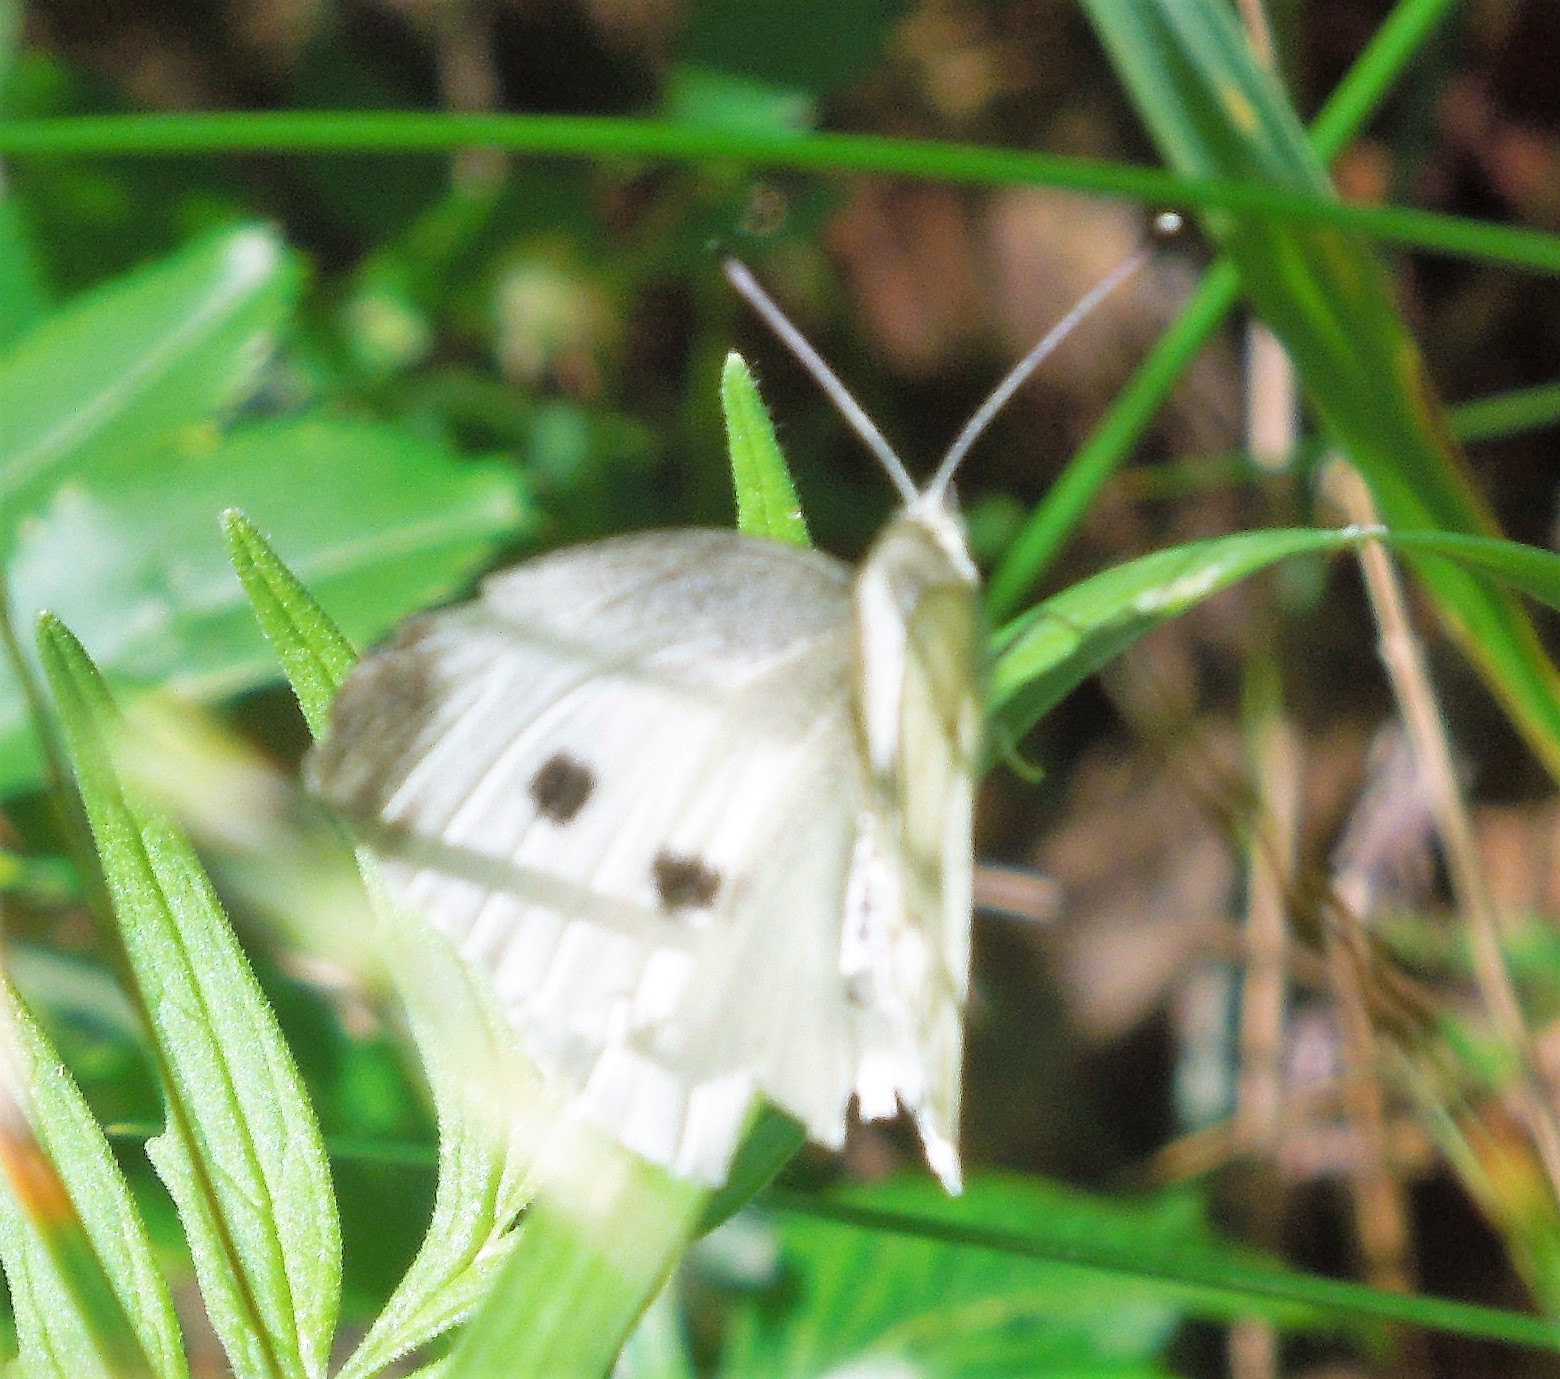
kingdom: Animalia
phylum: Arthropoda
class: Insecta
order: Lepidoptera
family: Pieridae
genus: Pieris
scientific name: Pieris rapae
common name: Small white
